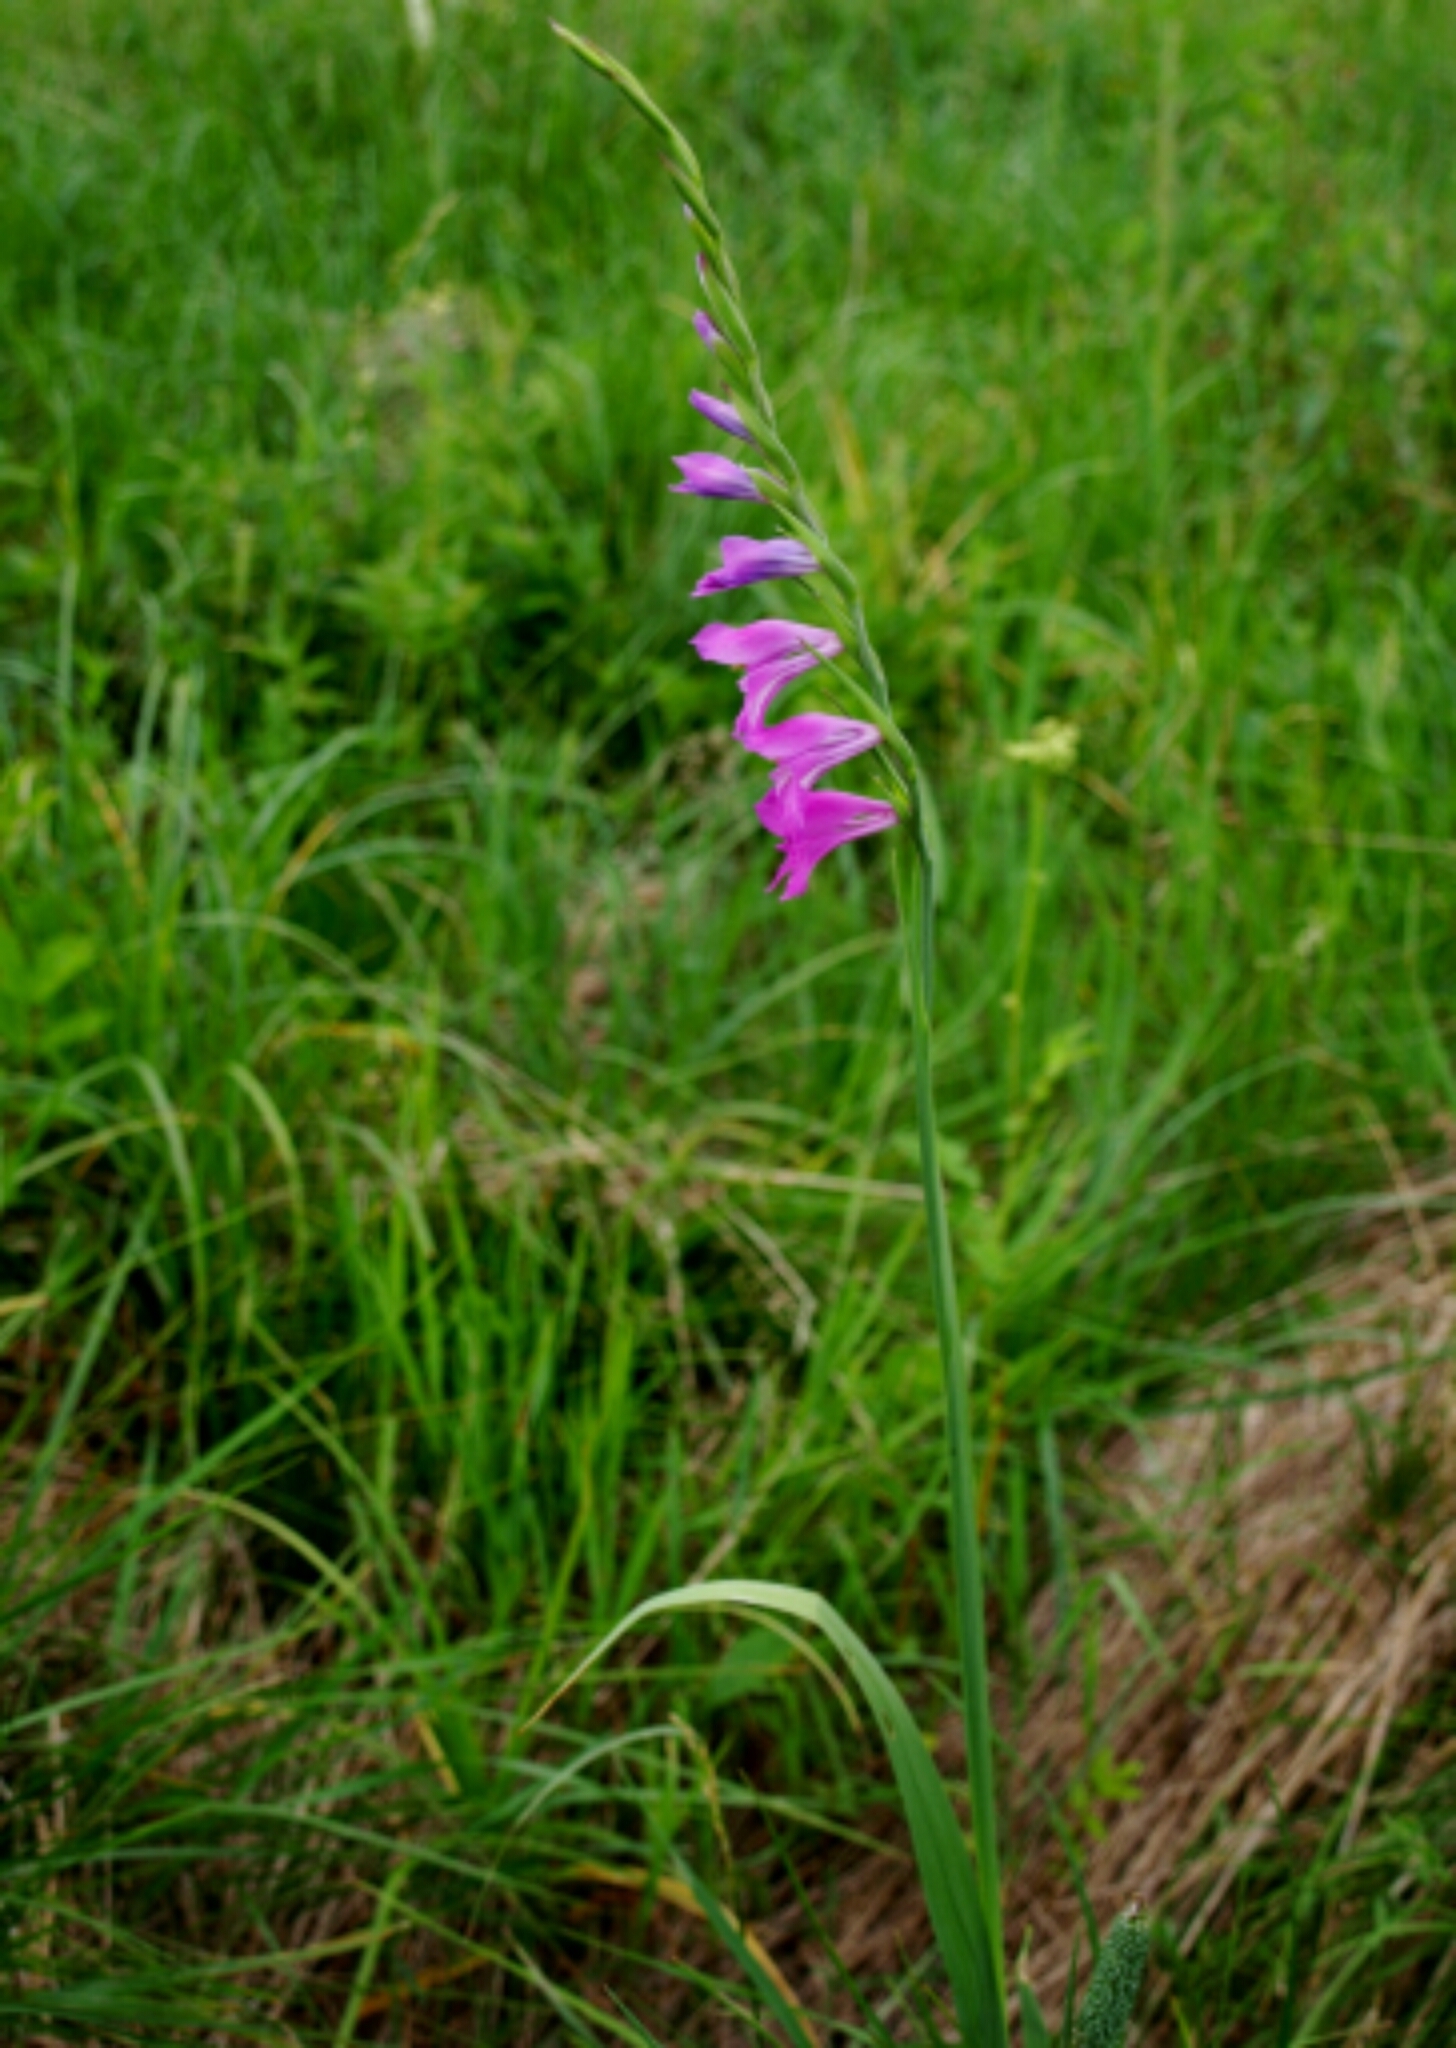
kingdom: Plantae
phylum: Tracheophyta
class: Liliopsida
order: Asparagales
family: Iridaceae
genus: Gladiolus
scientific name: Gladiolus imbricatus
